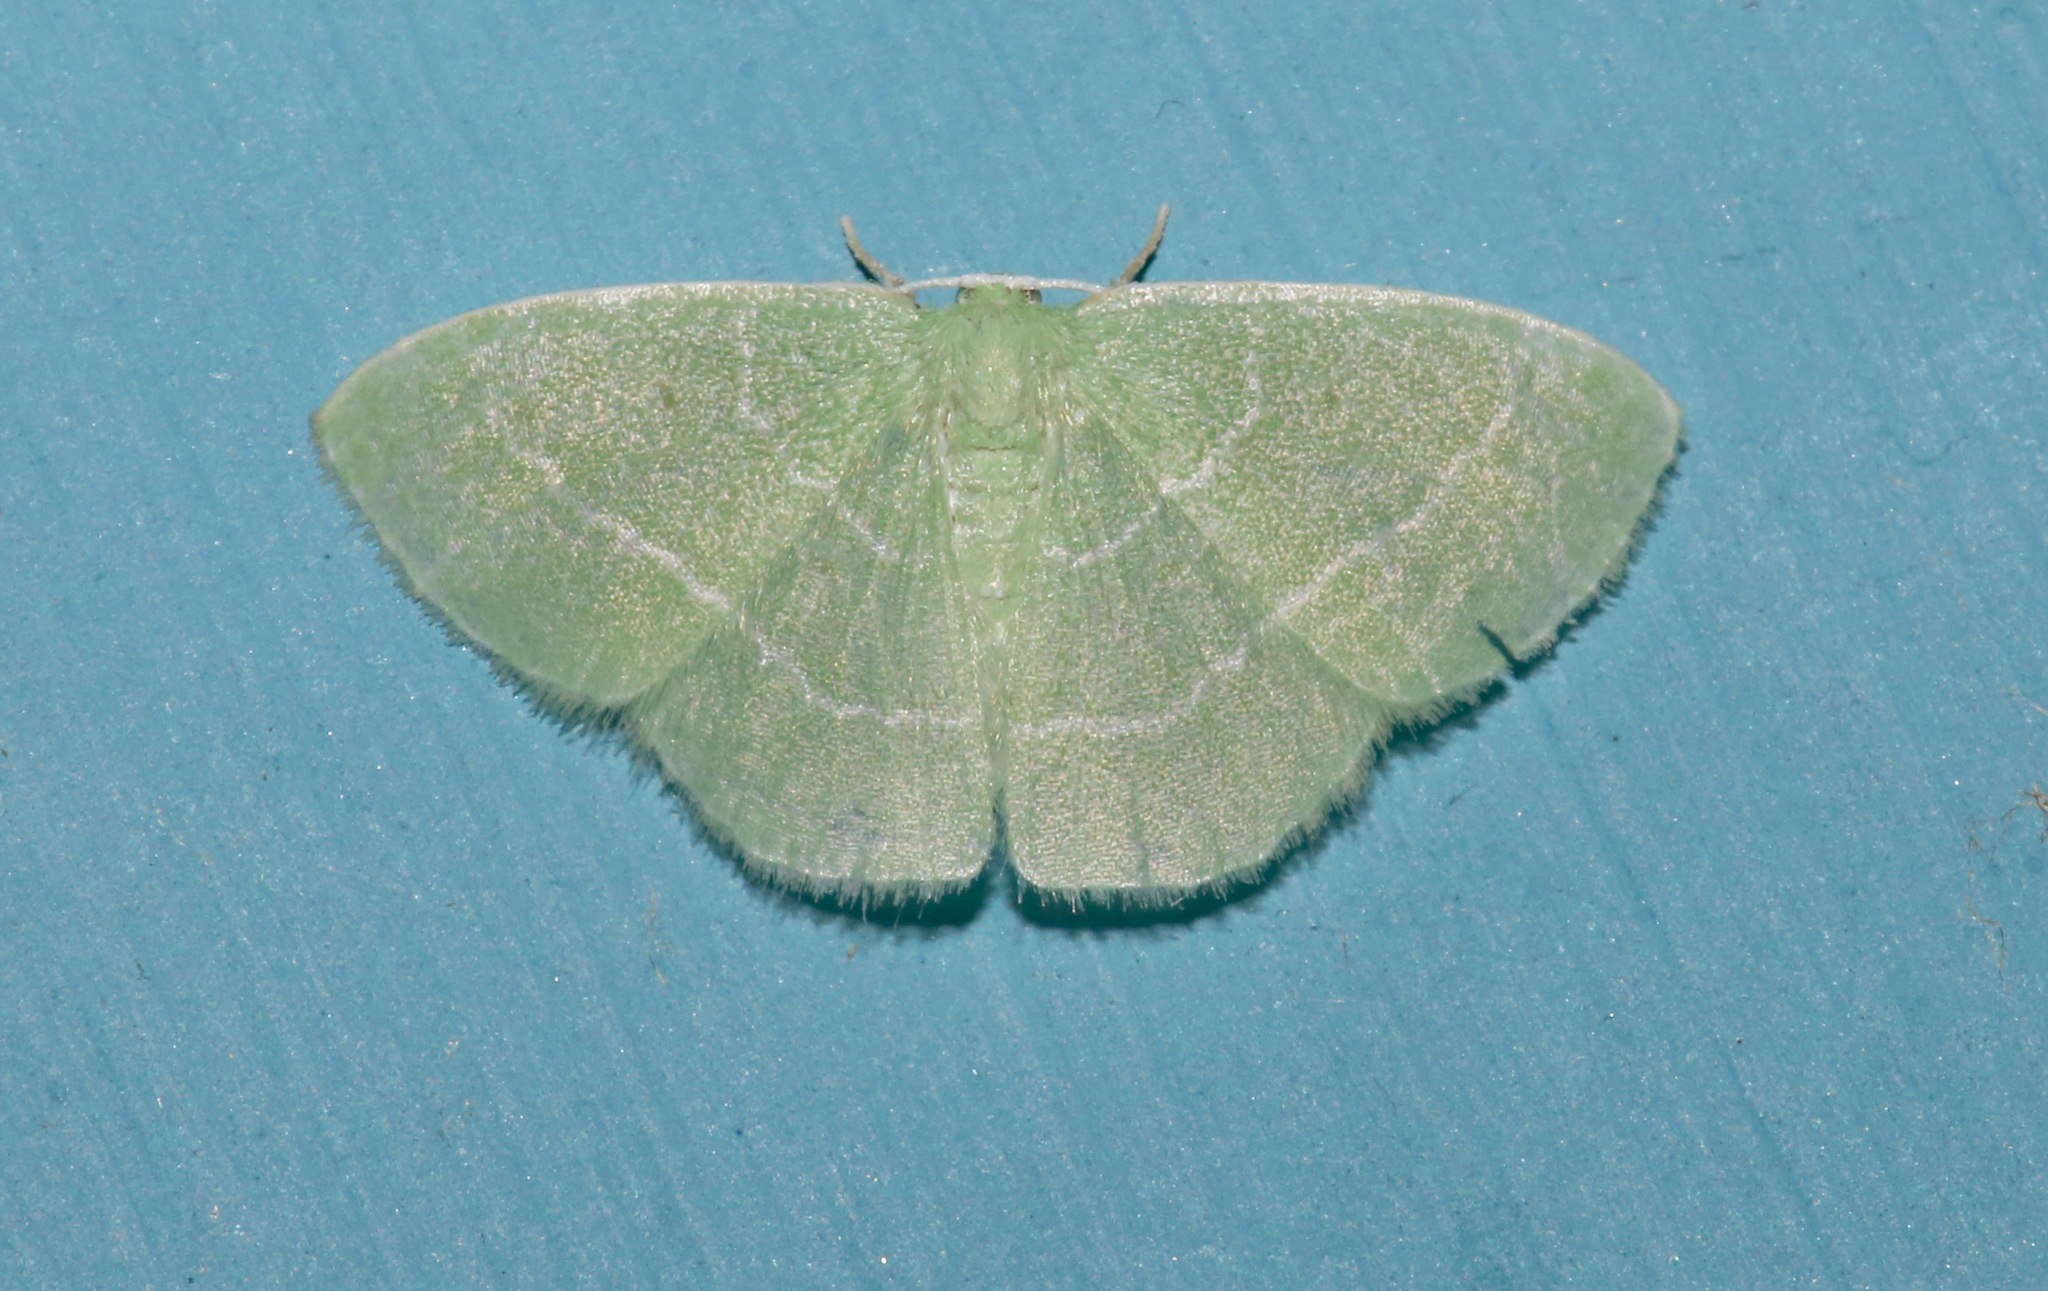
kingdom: Animalia
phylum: Arthropoda
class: Insecta
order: Lepidoptera
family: Geometridae
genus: Nemoria
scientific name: Nemoria elfa
